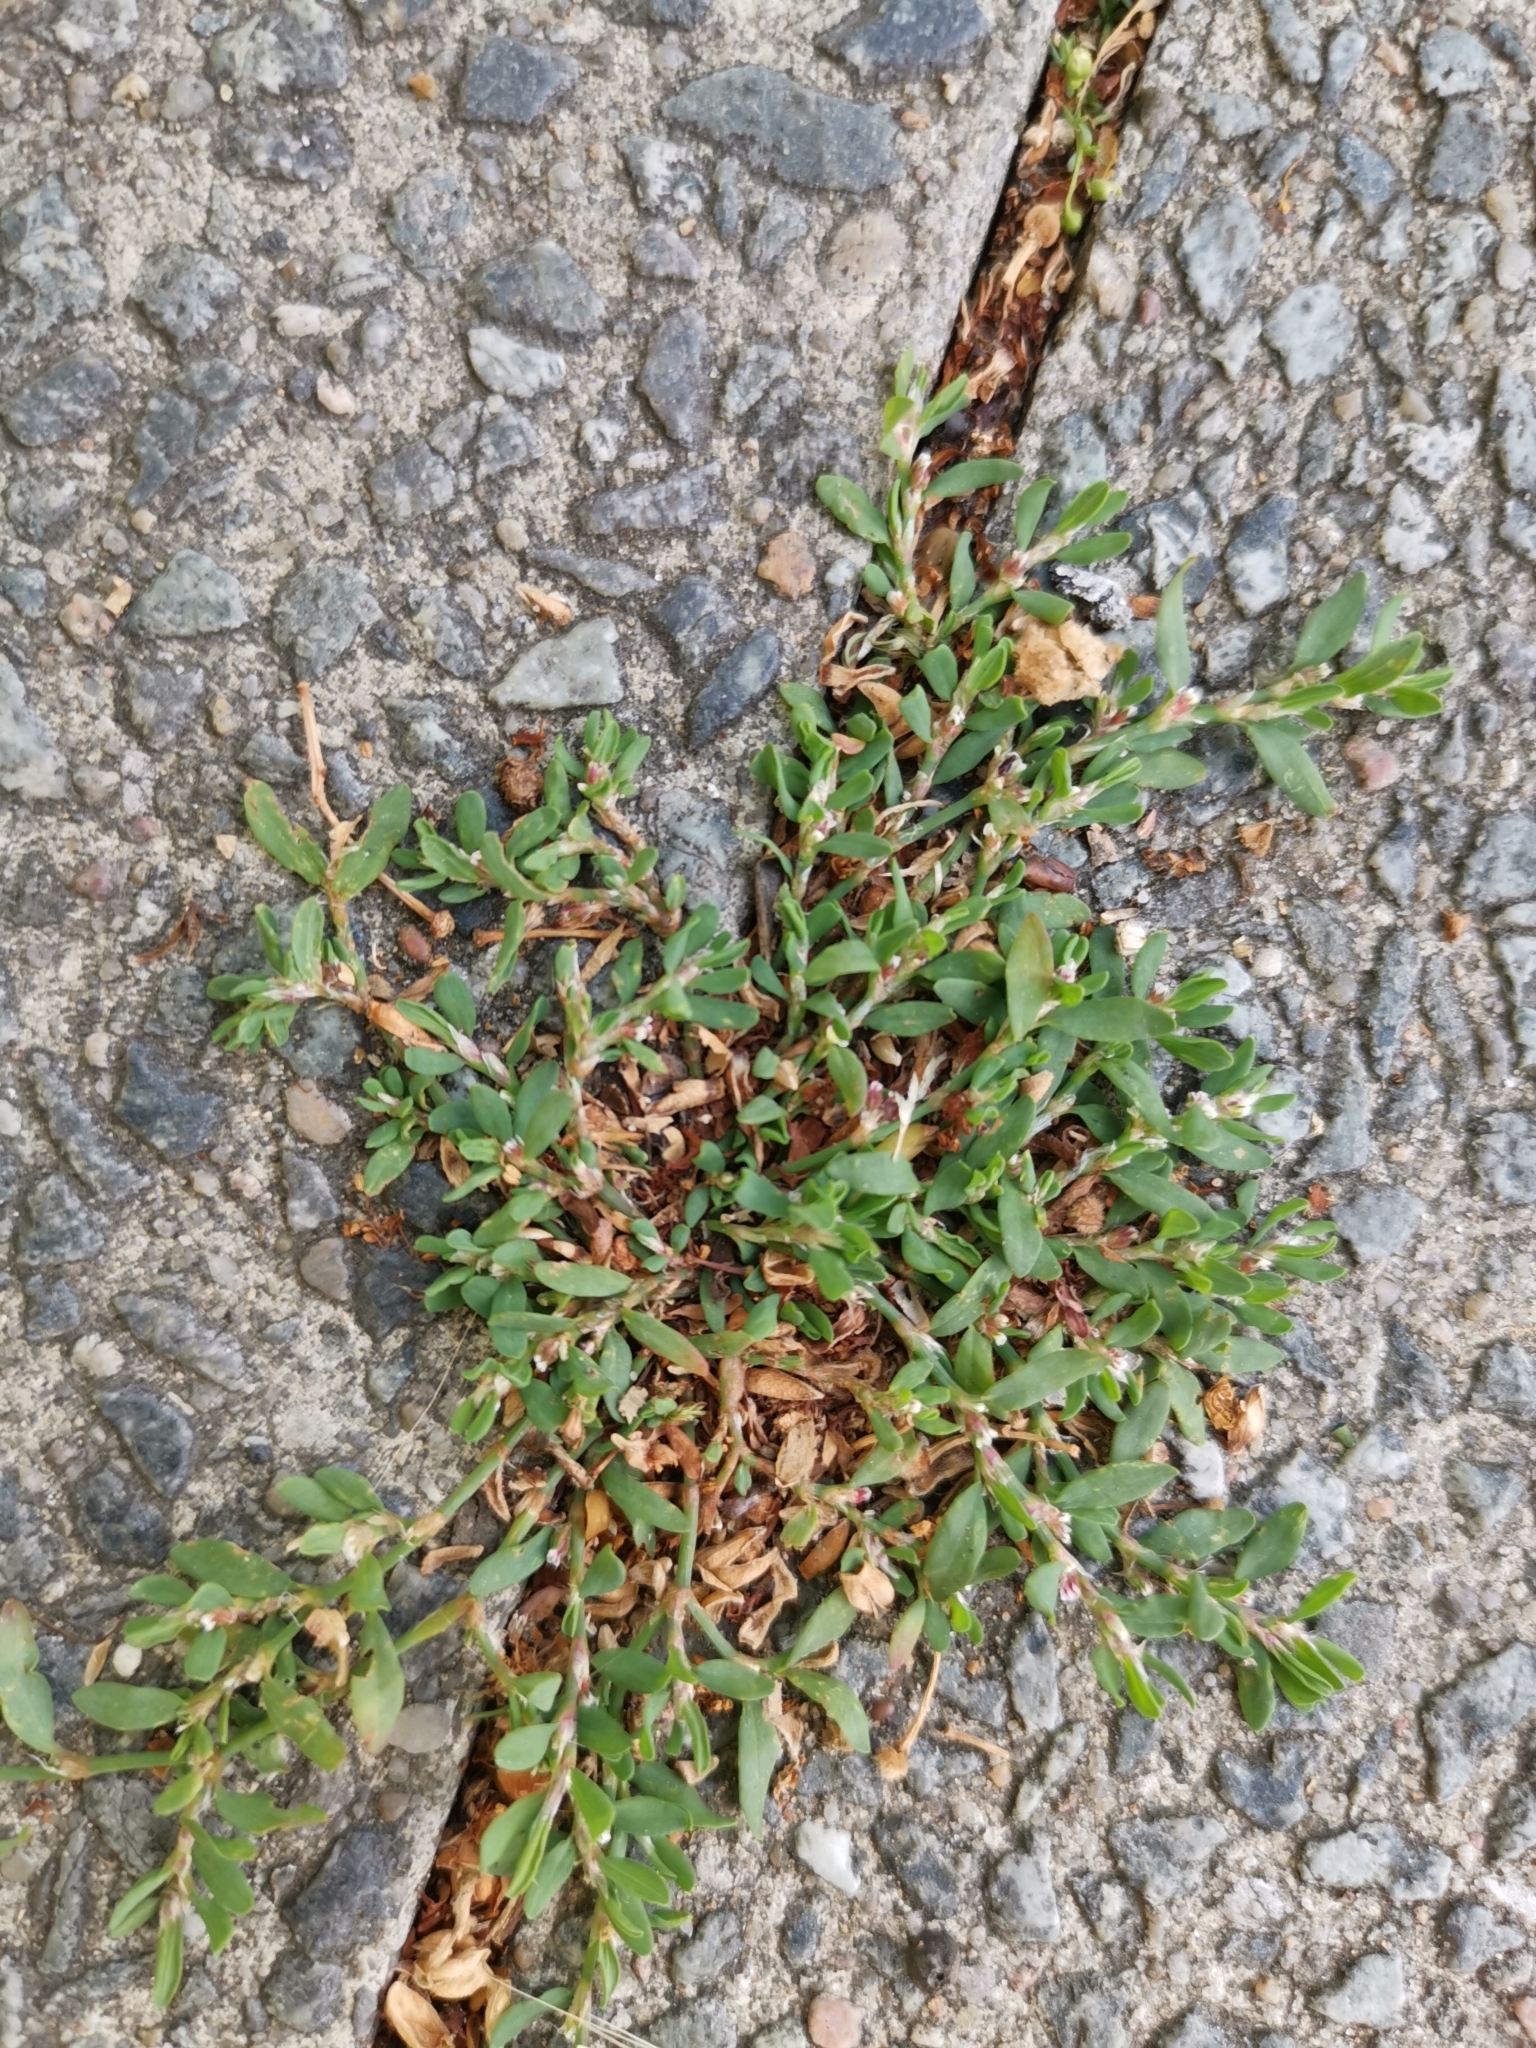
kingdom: Plantae
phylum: Tracheophyta
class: Magnoliopsida
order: Caryophyllales
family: Polygonaceae
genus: Polygonum
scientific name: Polygonum arenastrum
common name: Equal-leaved knotgrass
